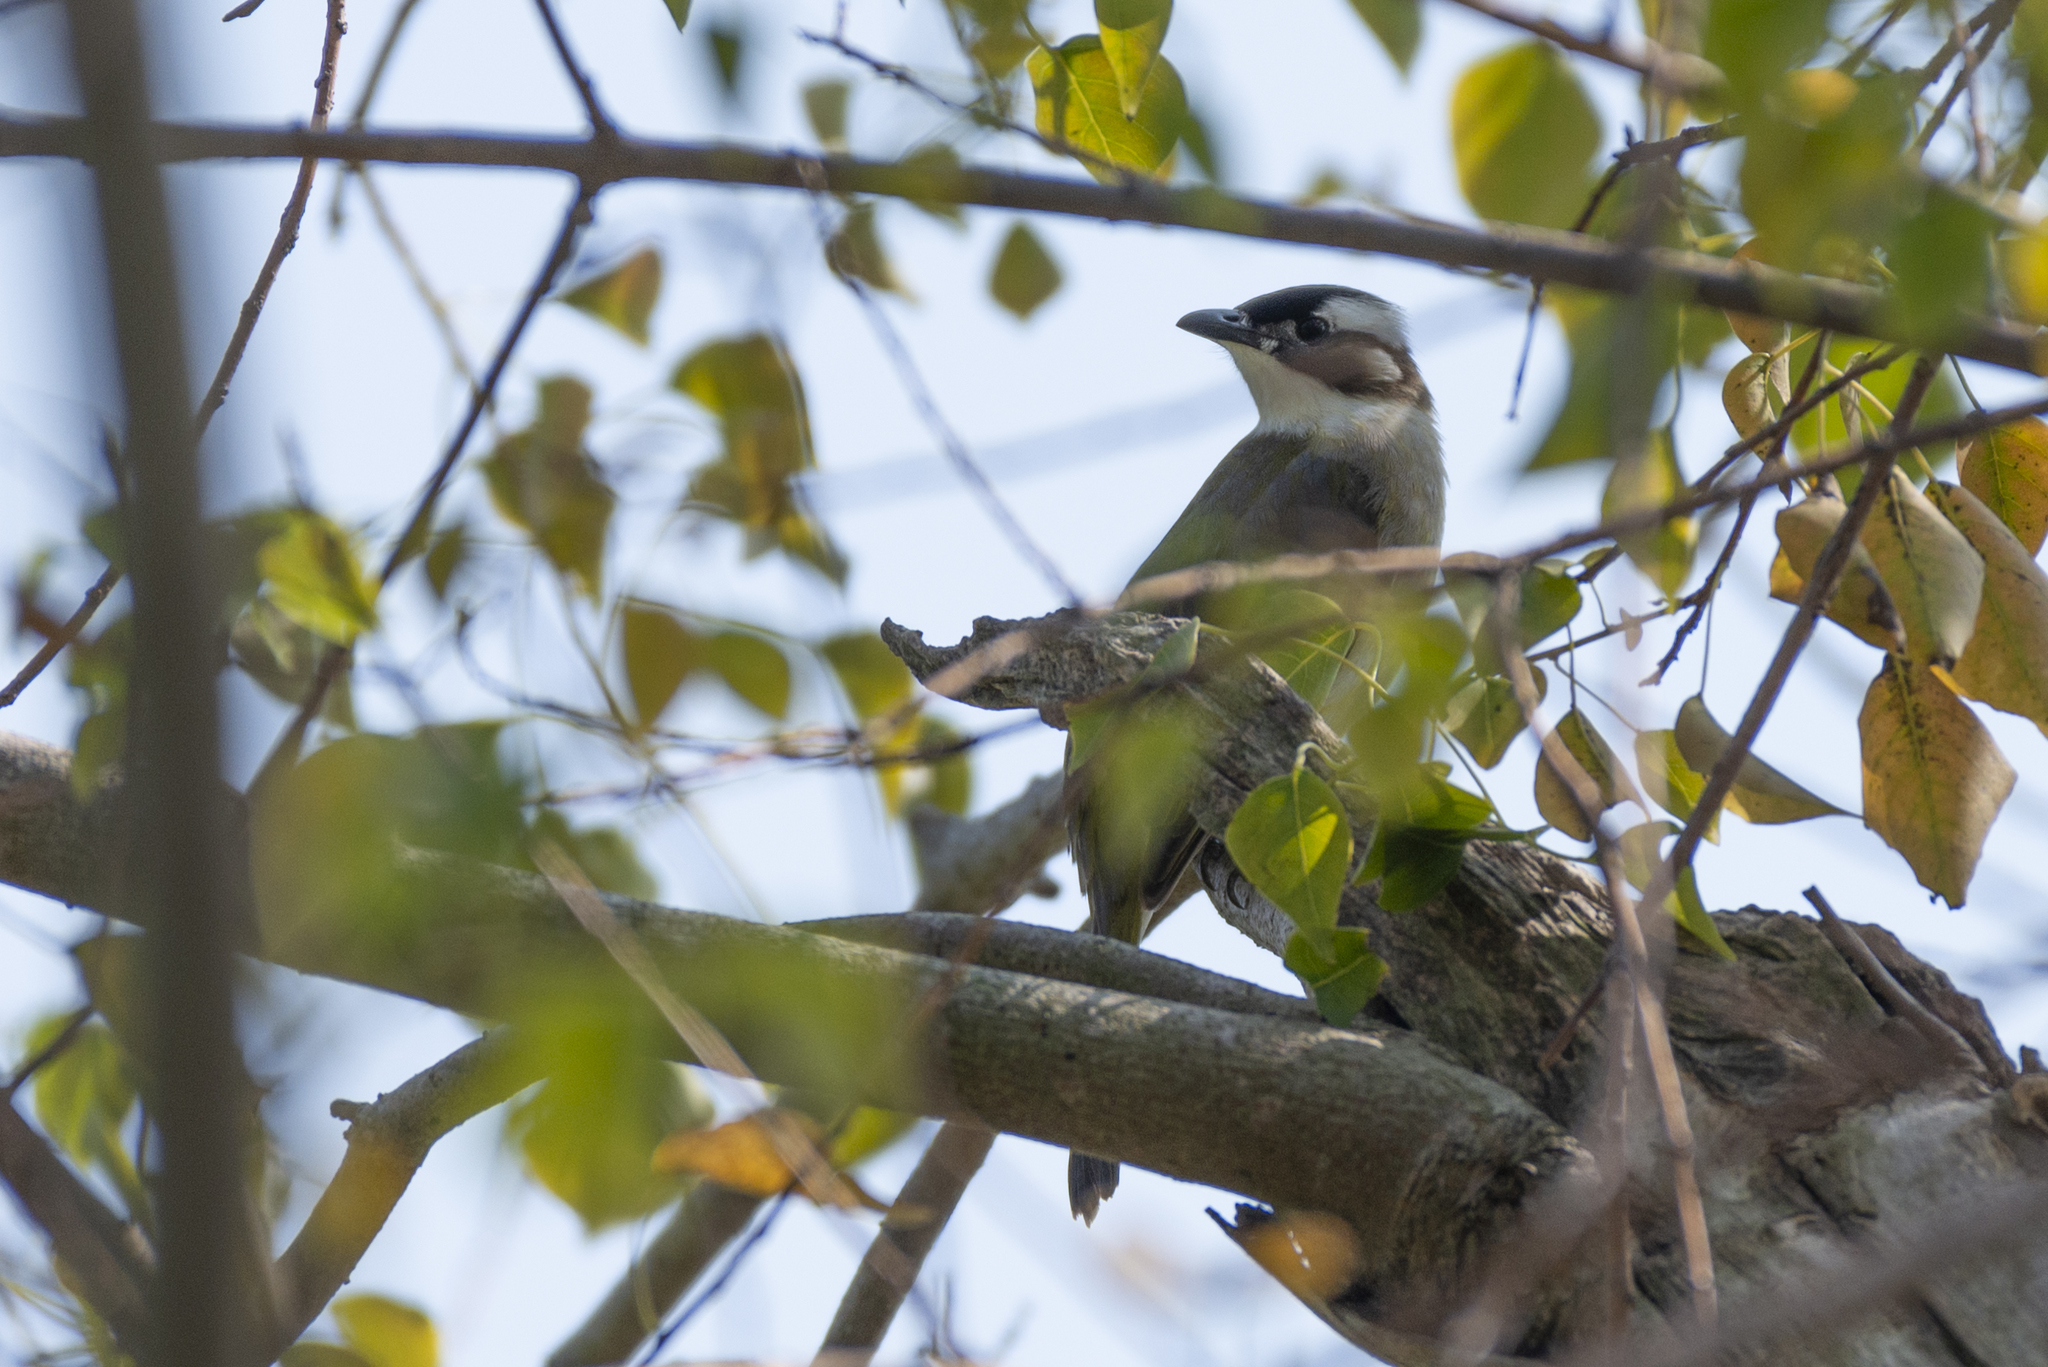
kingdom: Animalia
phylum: Chordata
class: Aves
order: Passeriformes
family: Pycnonotidae
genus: Pycnonotus
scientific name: Pycnonotus sinensis
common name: Light-vented bulbul
